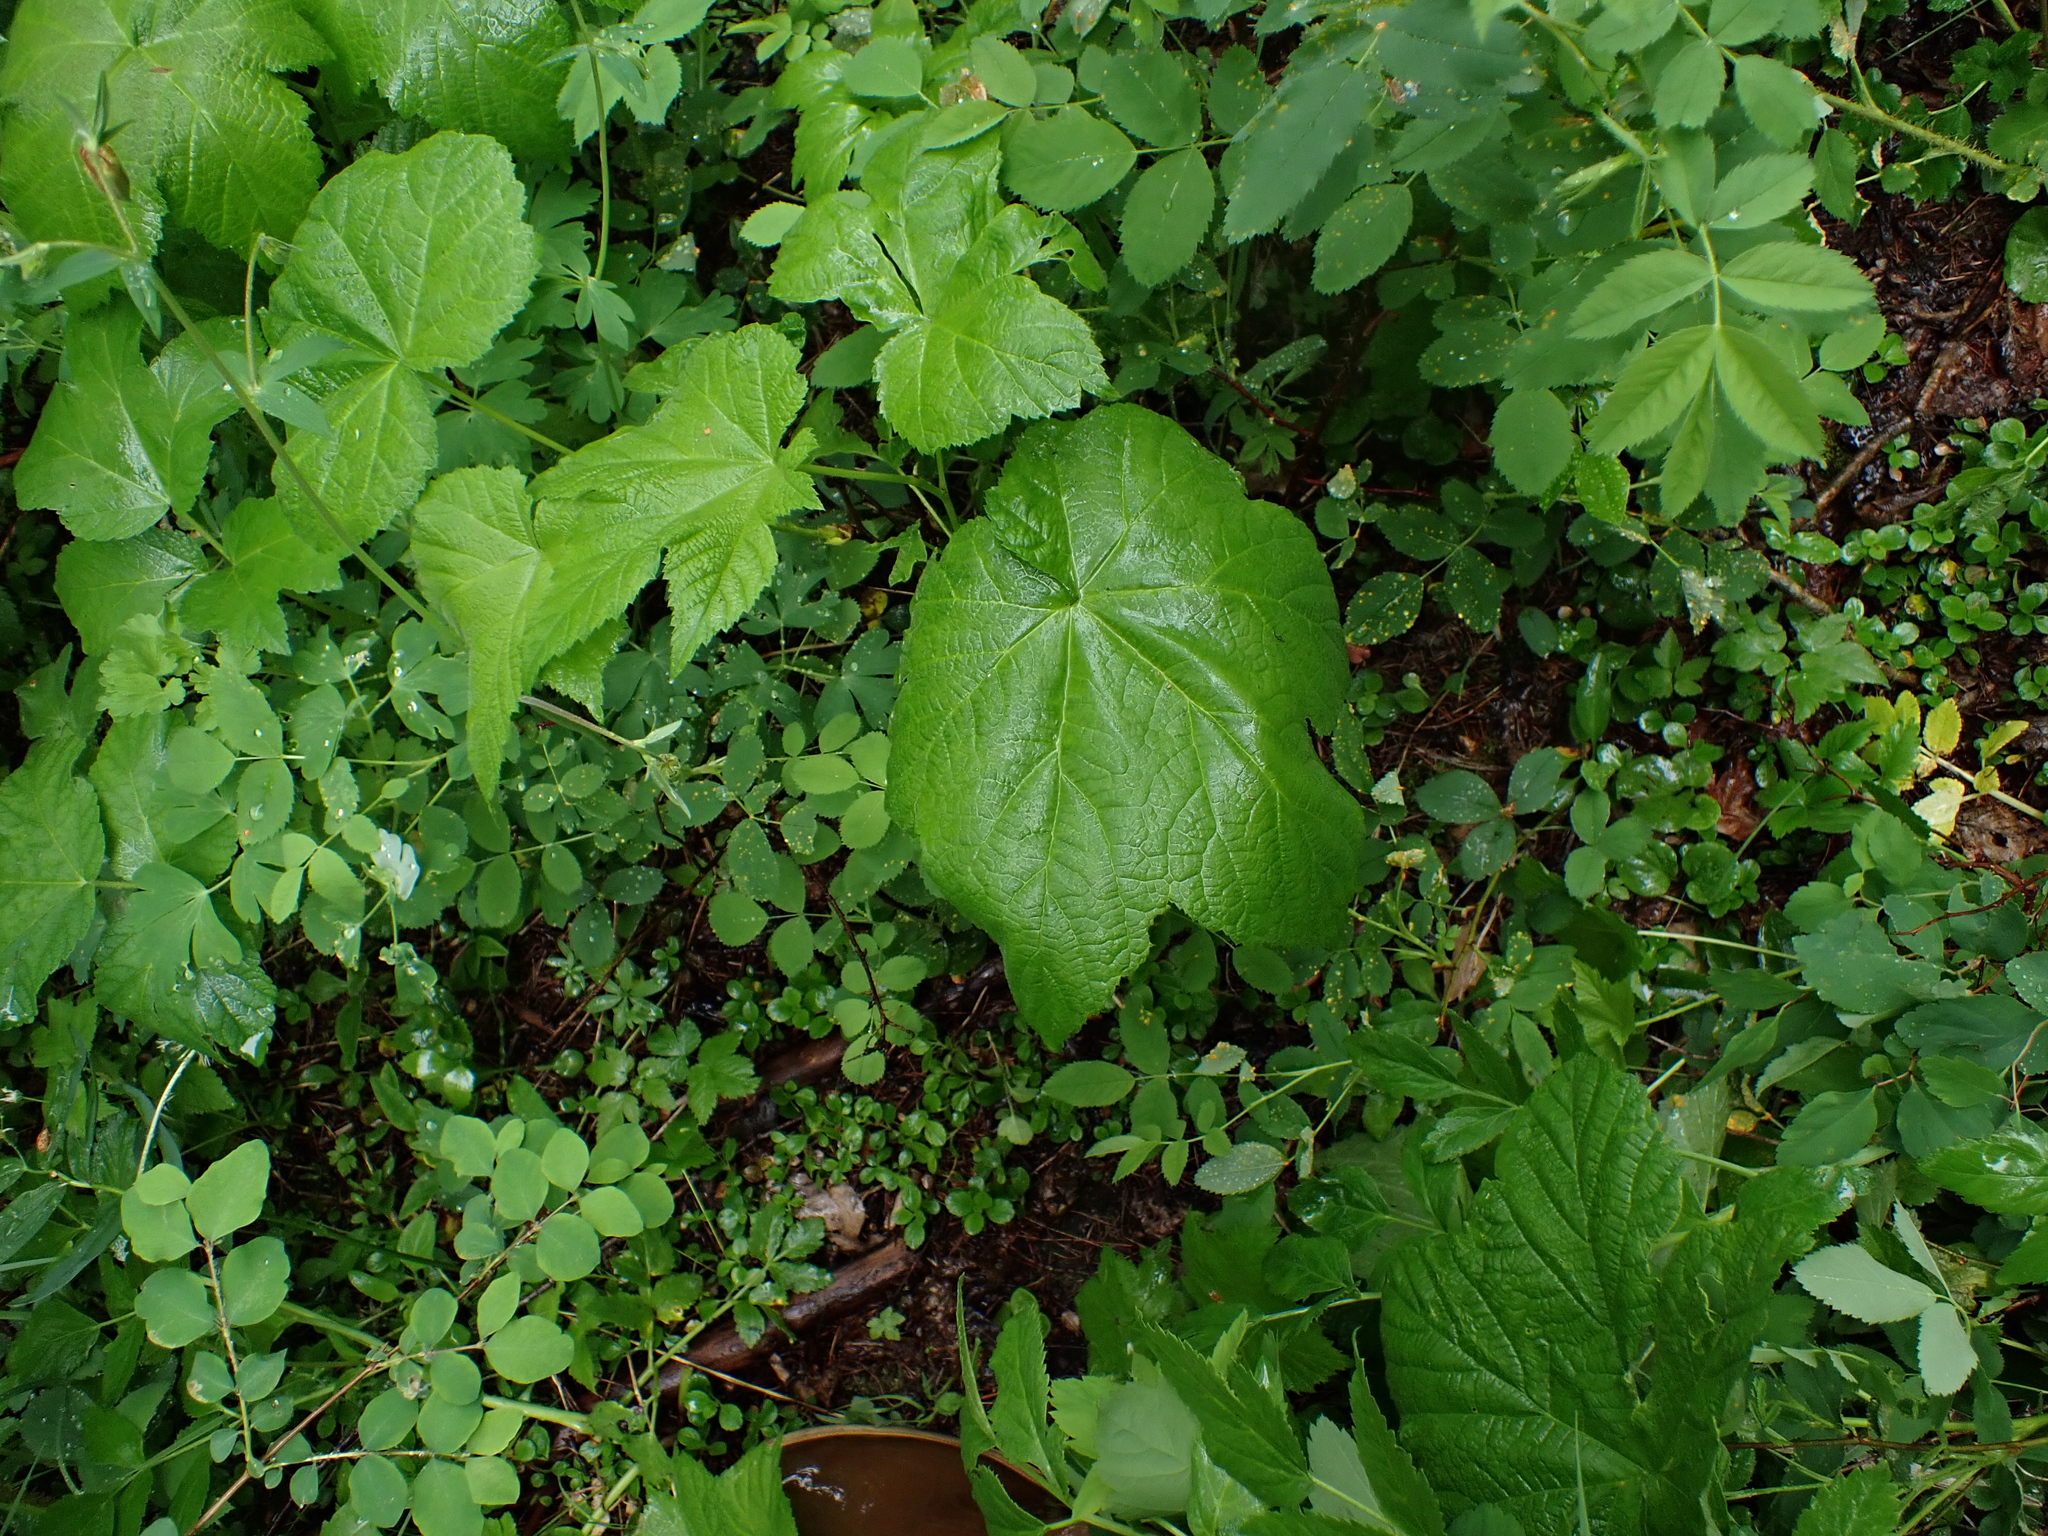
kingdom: Plantae
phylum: Tracheophyta
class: Magnoliopsida
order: Rosales
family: Rosaceae
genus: Rubus
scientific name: Rubus parviflorus
